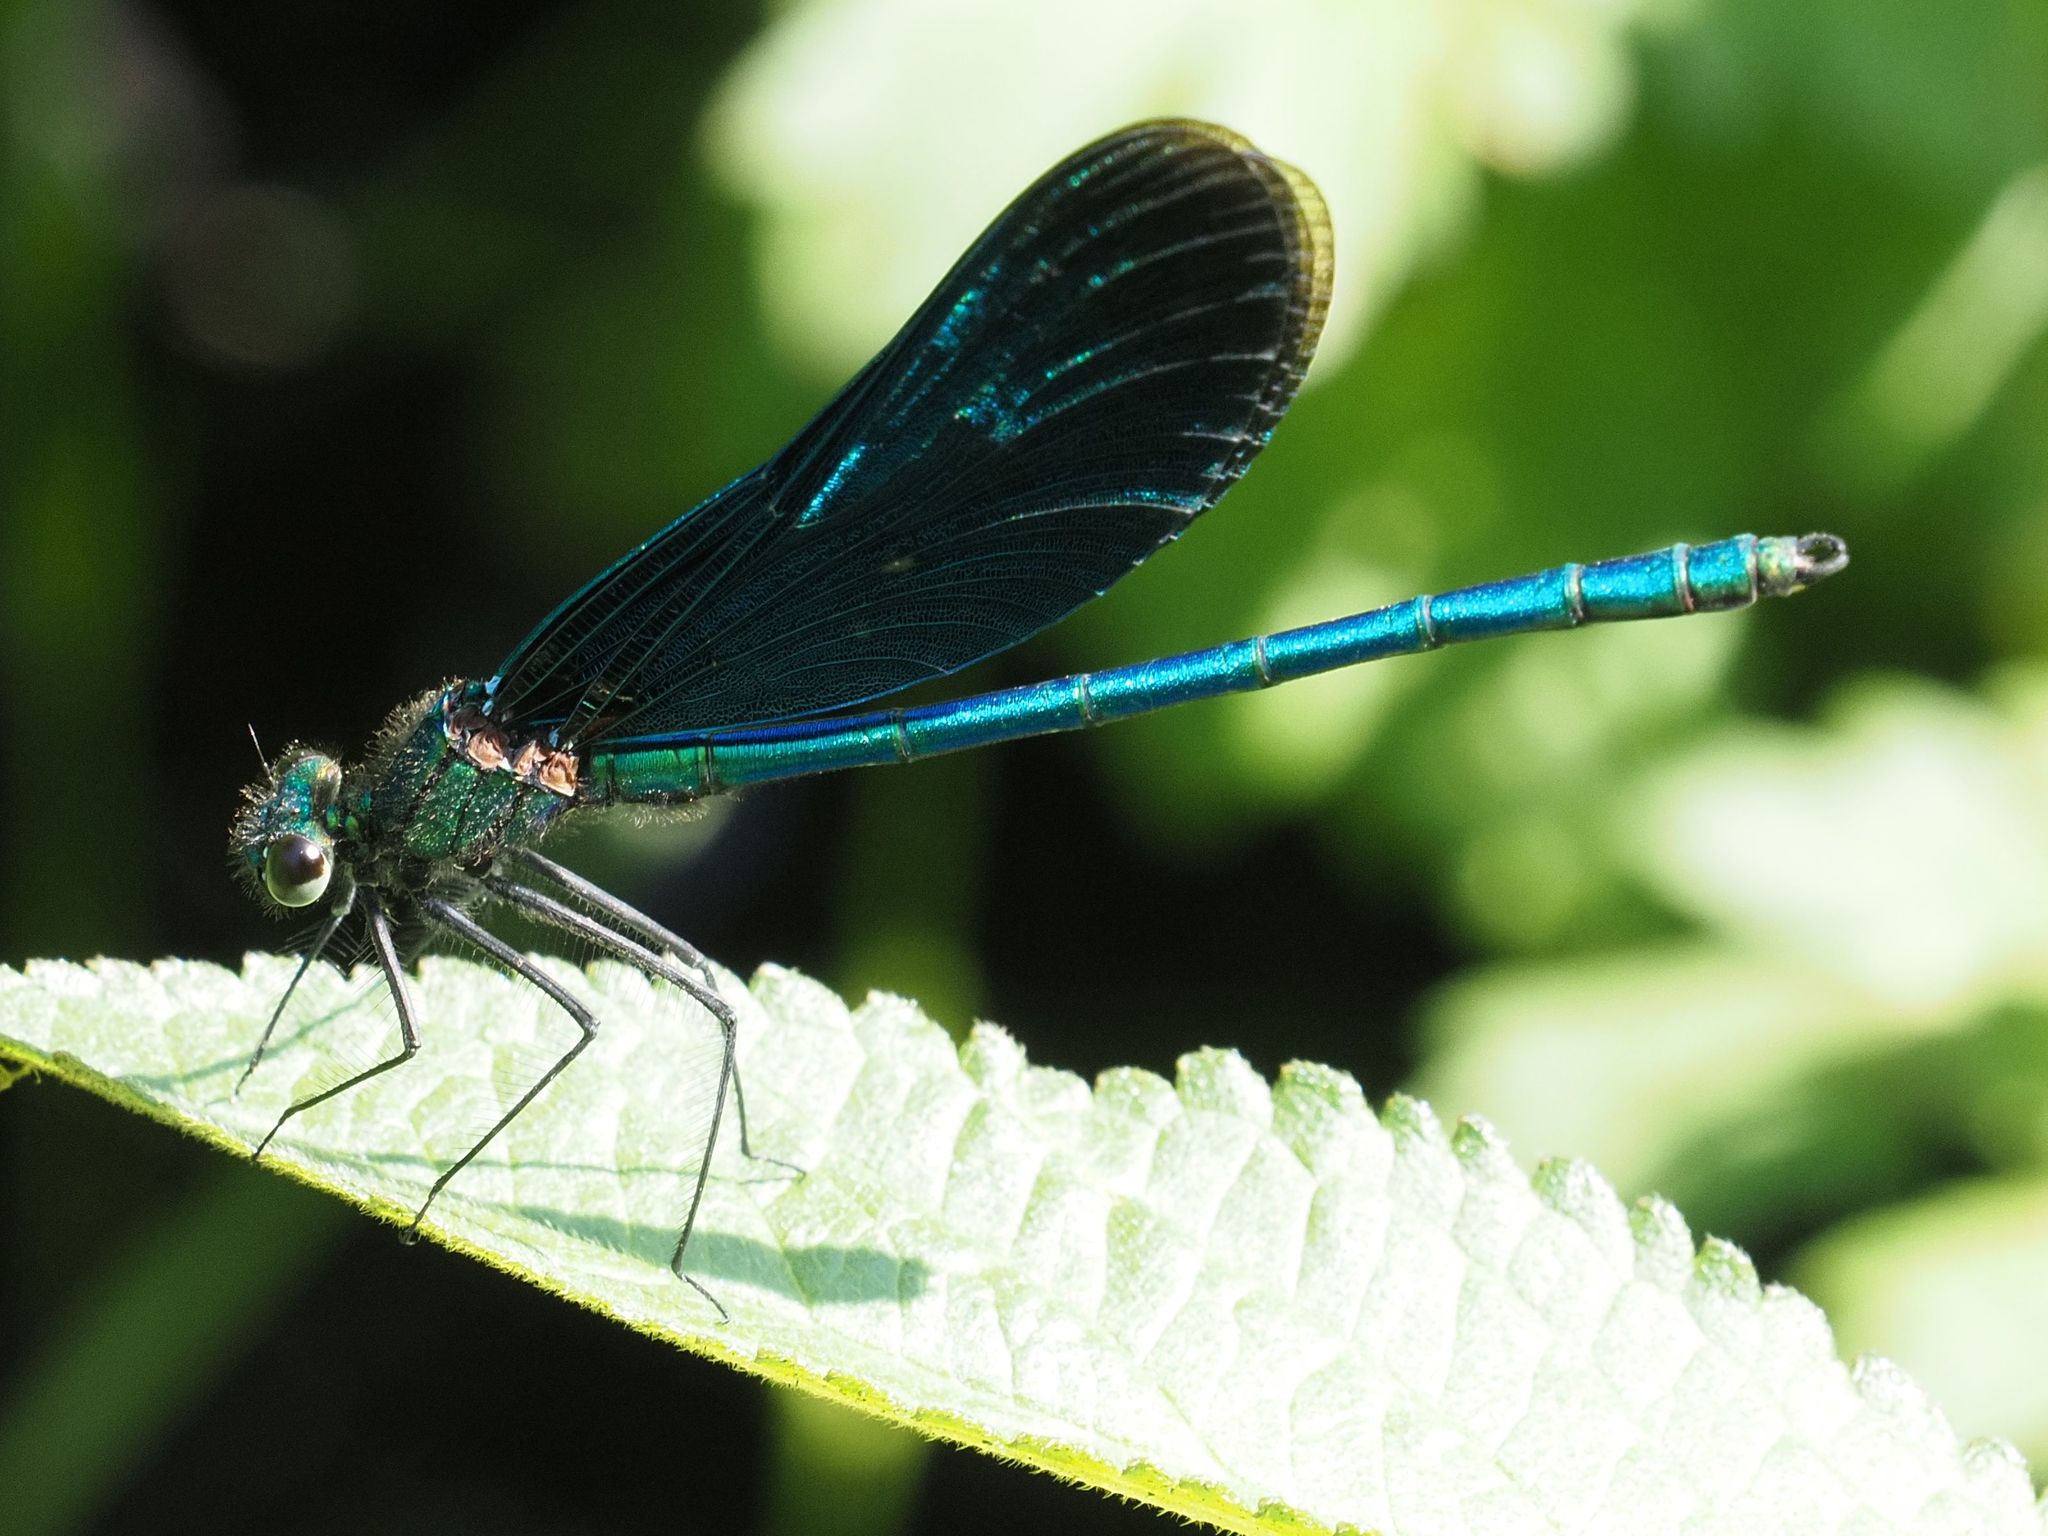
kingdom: Animalia
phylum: Arthropoda
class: Insecta
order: Odonata
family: Calopterygidae
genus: Calopteryx
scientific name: Calopteryx virgo
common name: Beautiful demoiselle
